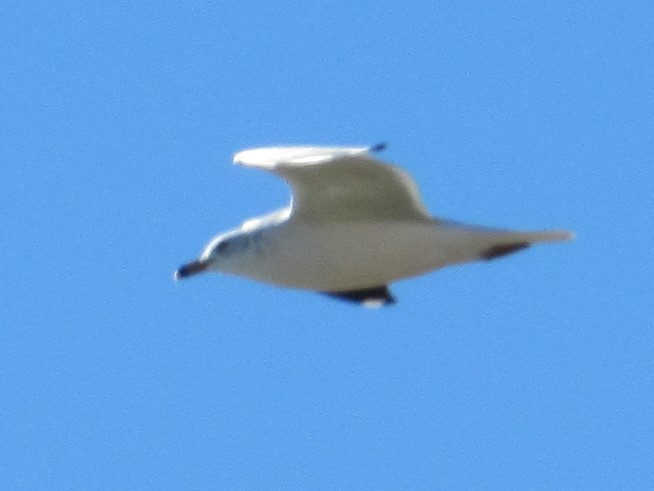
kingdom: Animalia
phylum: Chordata
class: Aves
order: Charadriiformes
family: Laridae
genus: Larus
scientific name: Larus delawarensis
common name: Ring-billed gull
